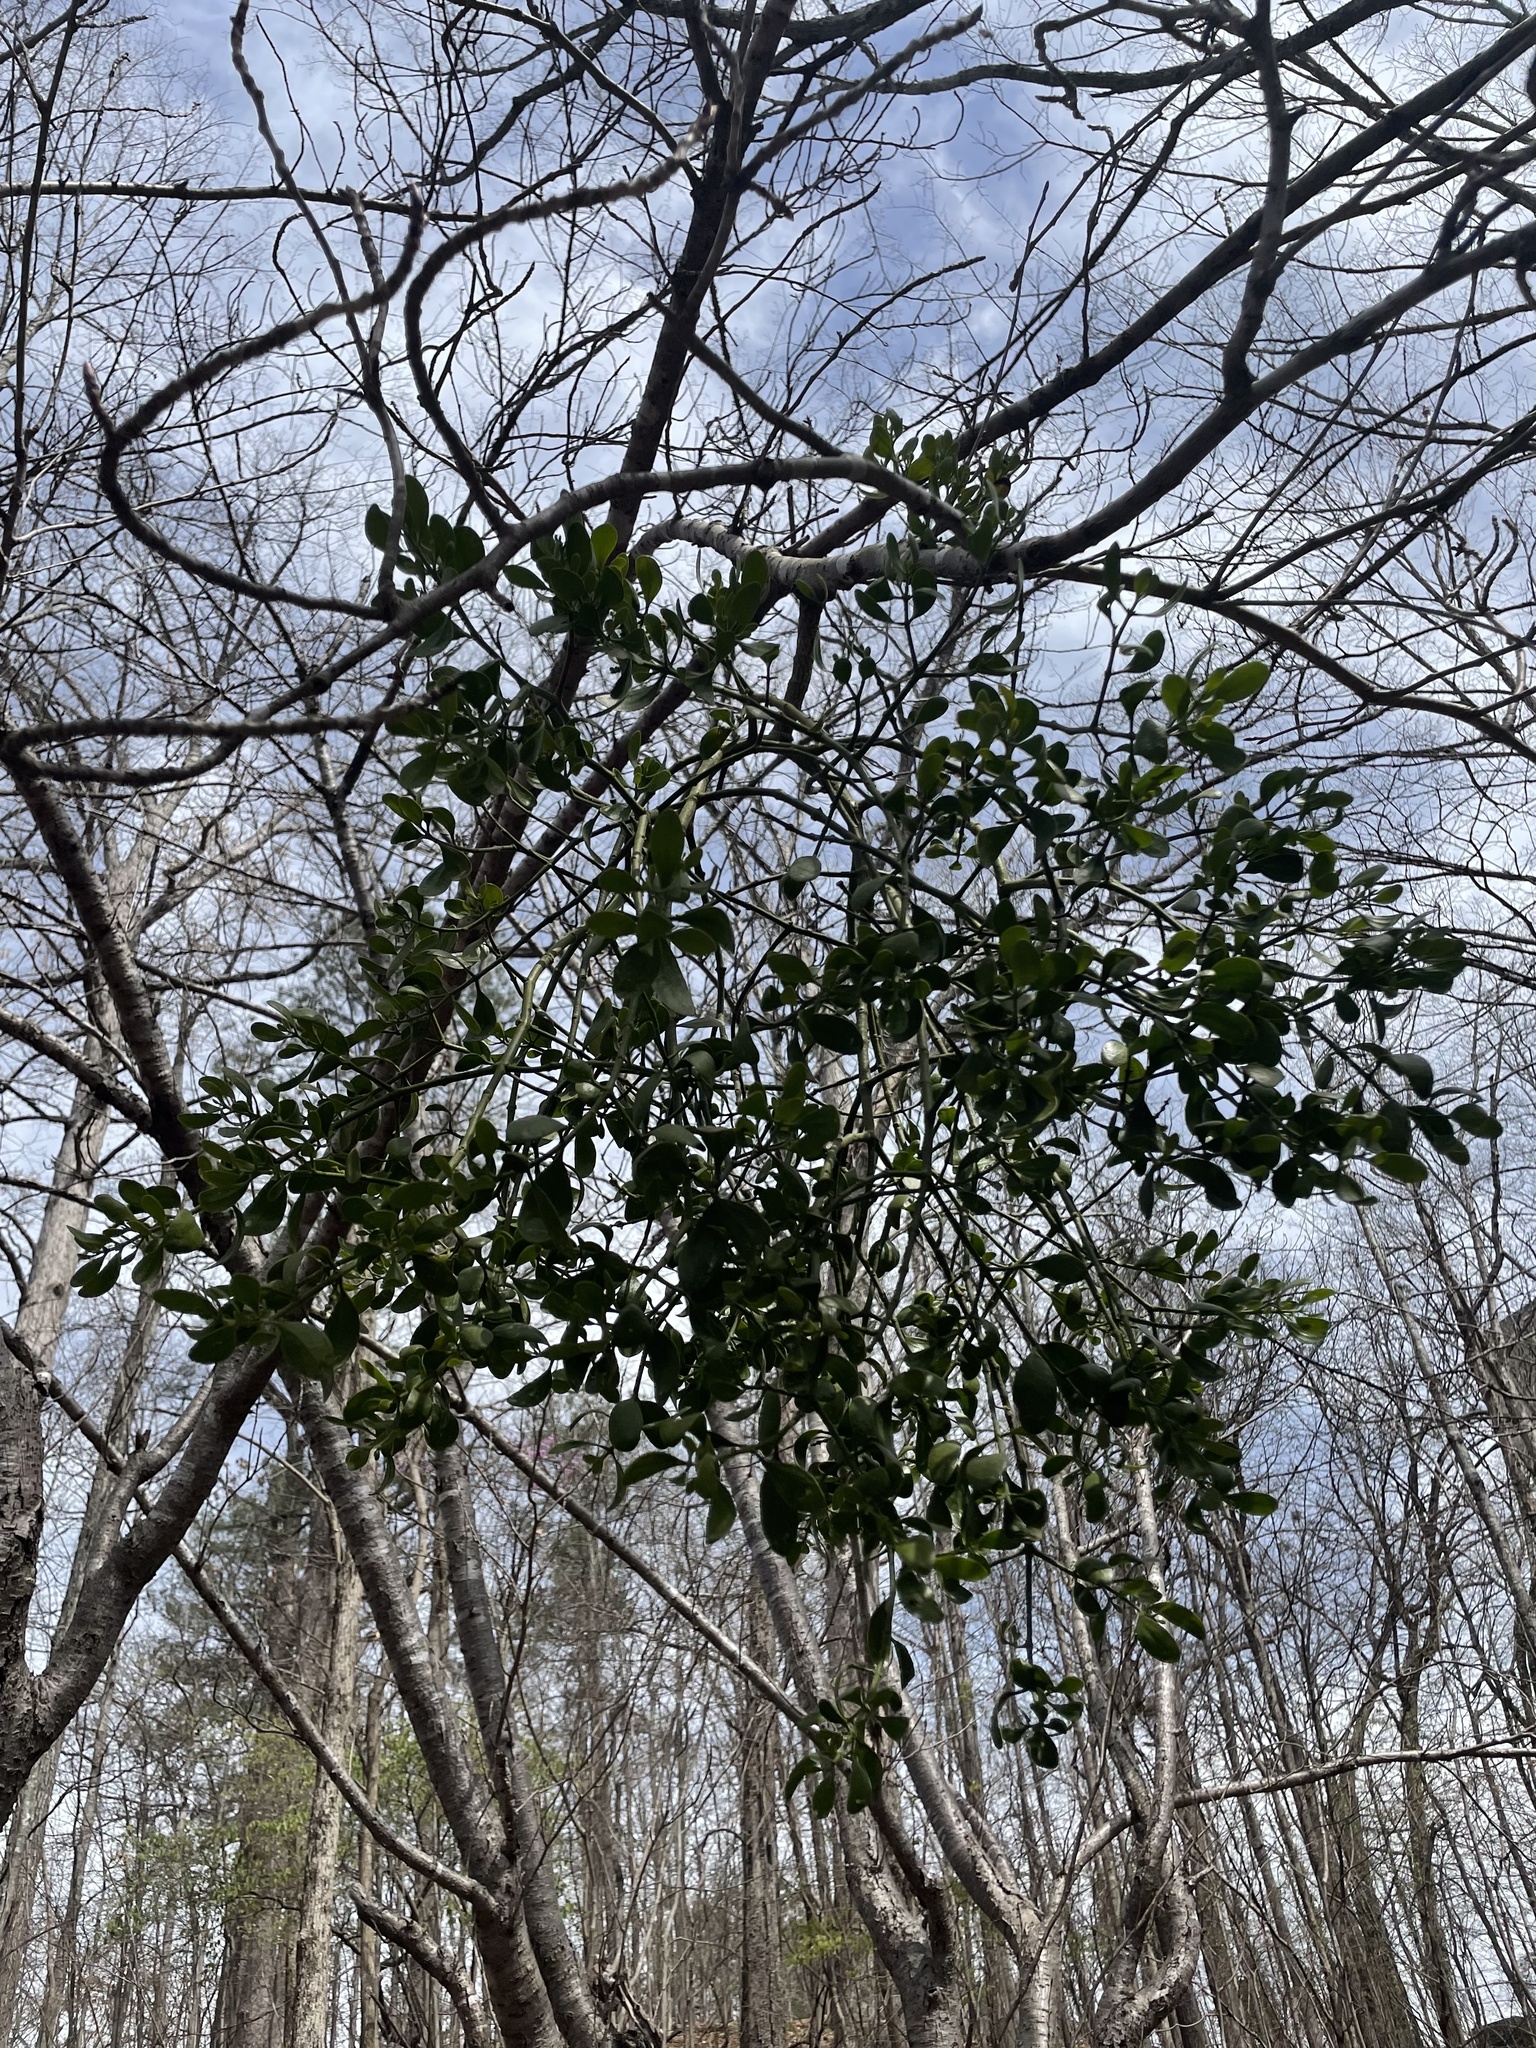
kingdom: Plantae
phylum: Tracheophyta
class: Magnoliopsida
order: Santalales
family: Viscaceae
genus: Phoradendron
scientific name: Phoradendron leucarpum
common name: Pacific mistletoe
